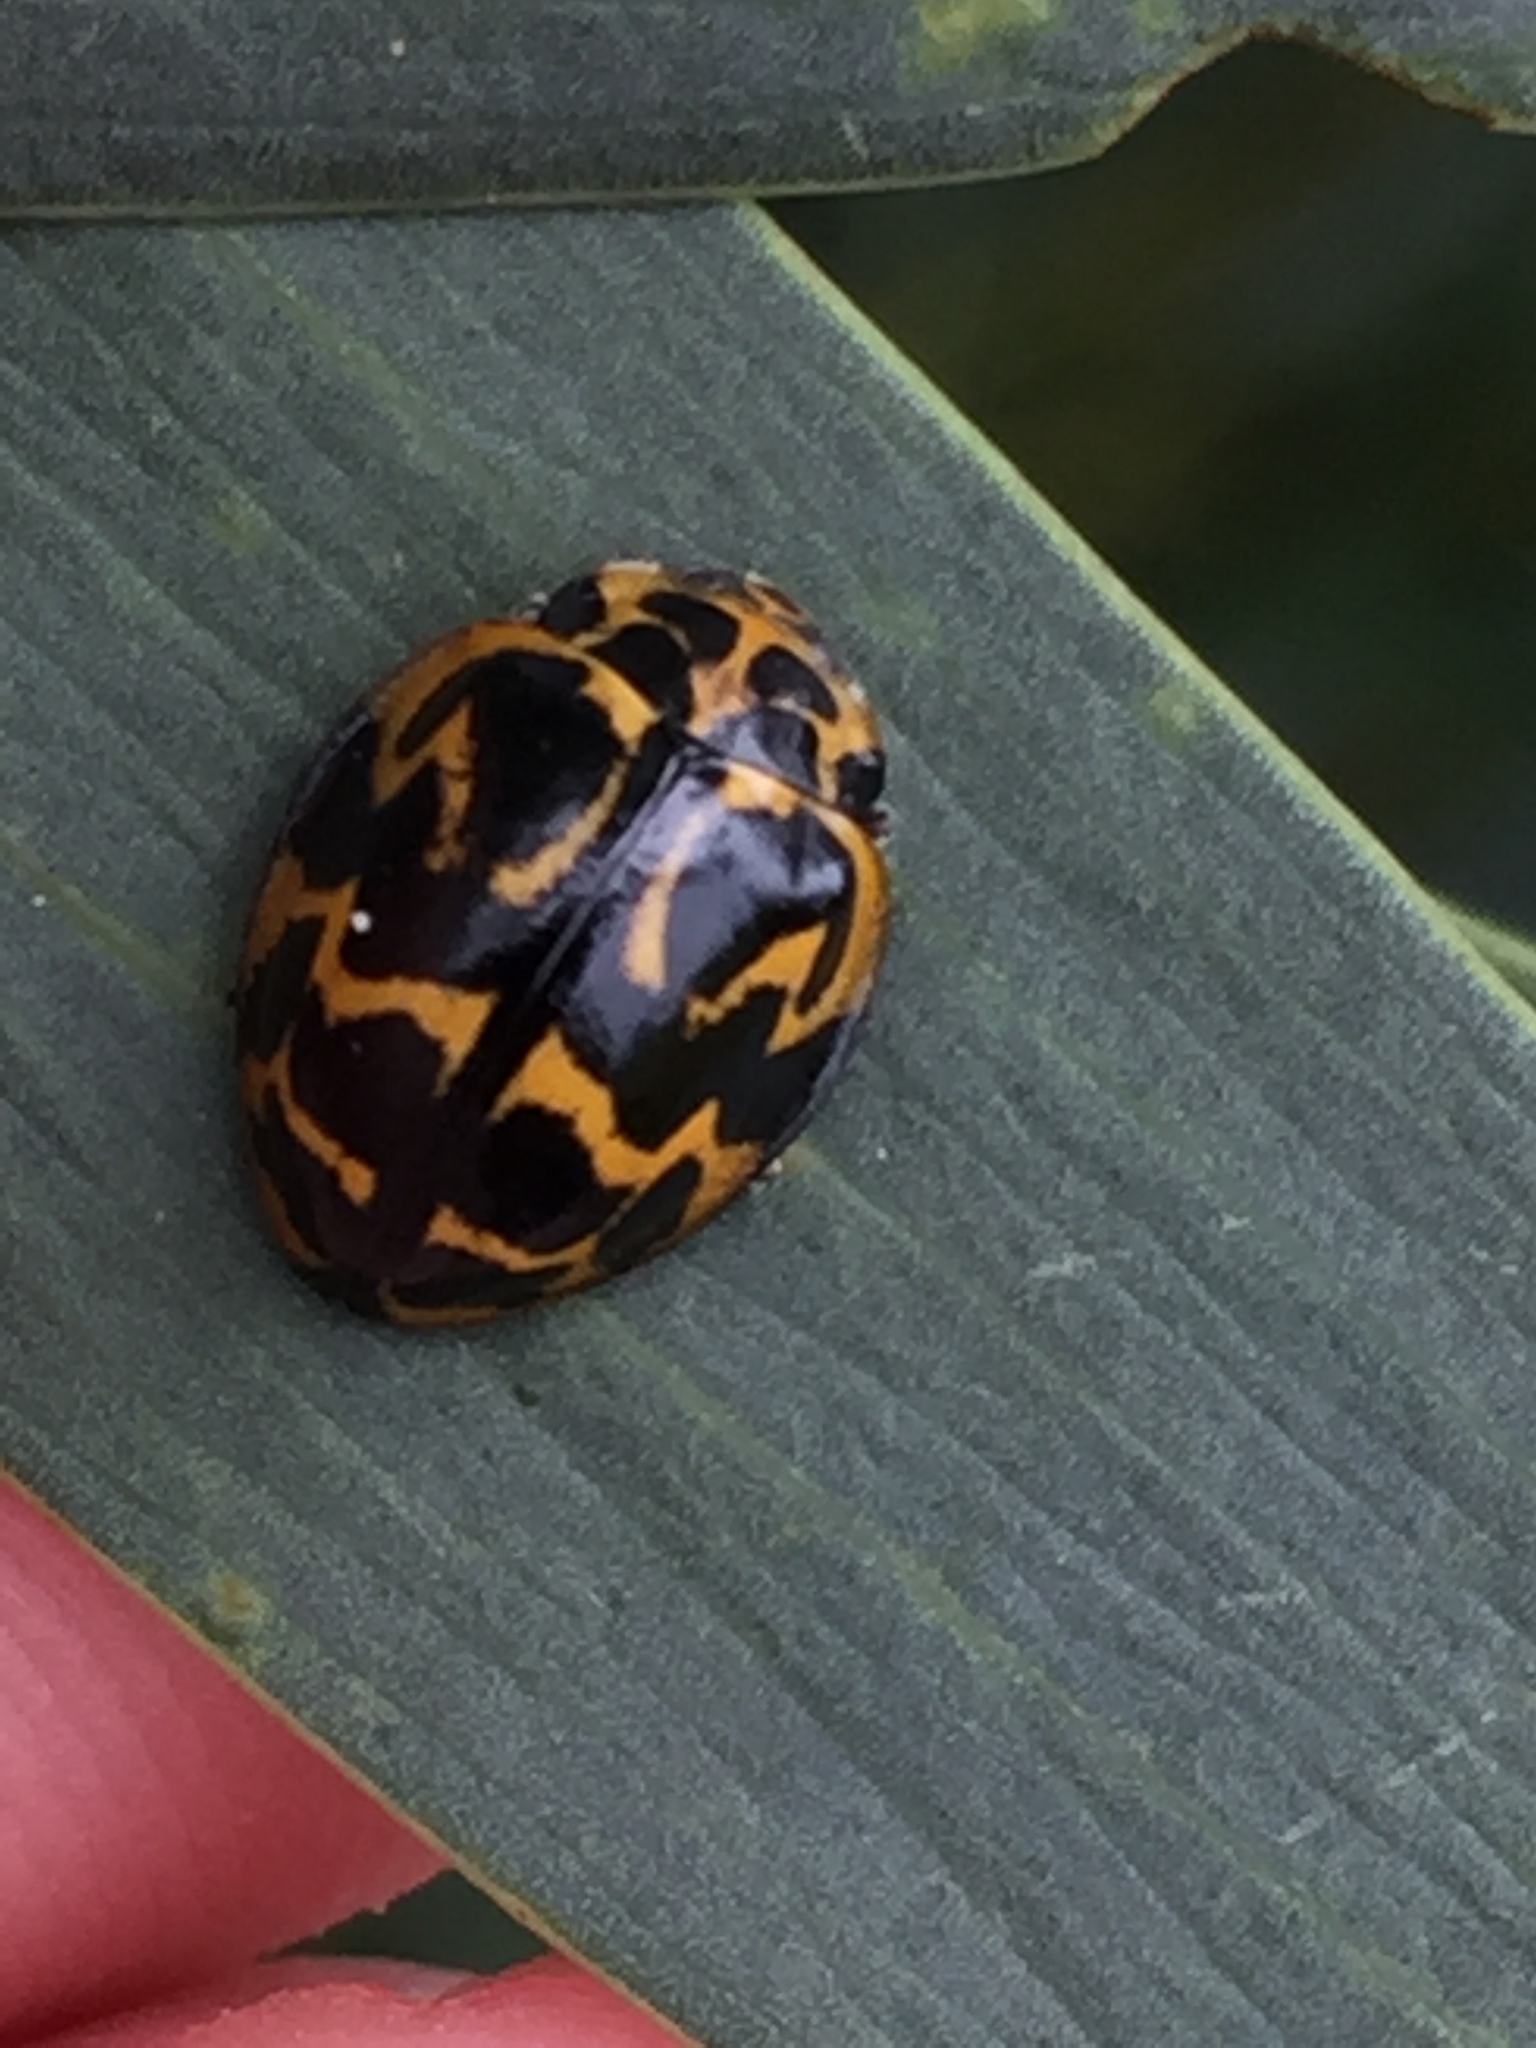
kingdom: Animalia
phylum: Arthropoda
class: Insecta
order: Coleoptera
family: Coccinellidae
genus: Cleobora
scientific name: Cleobora
